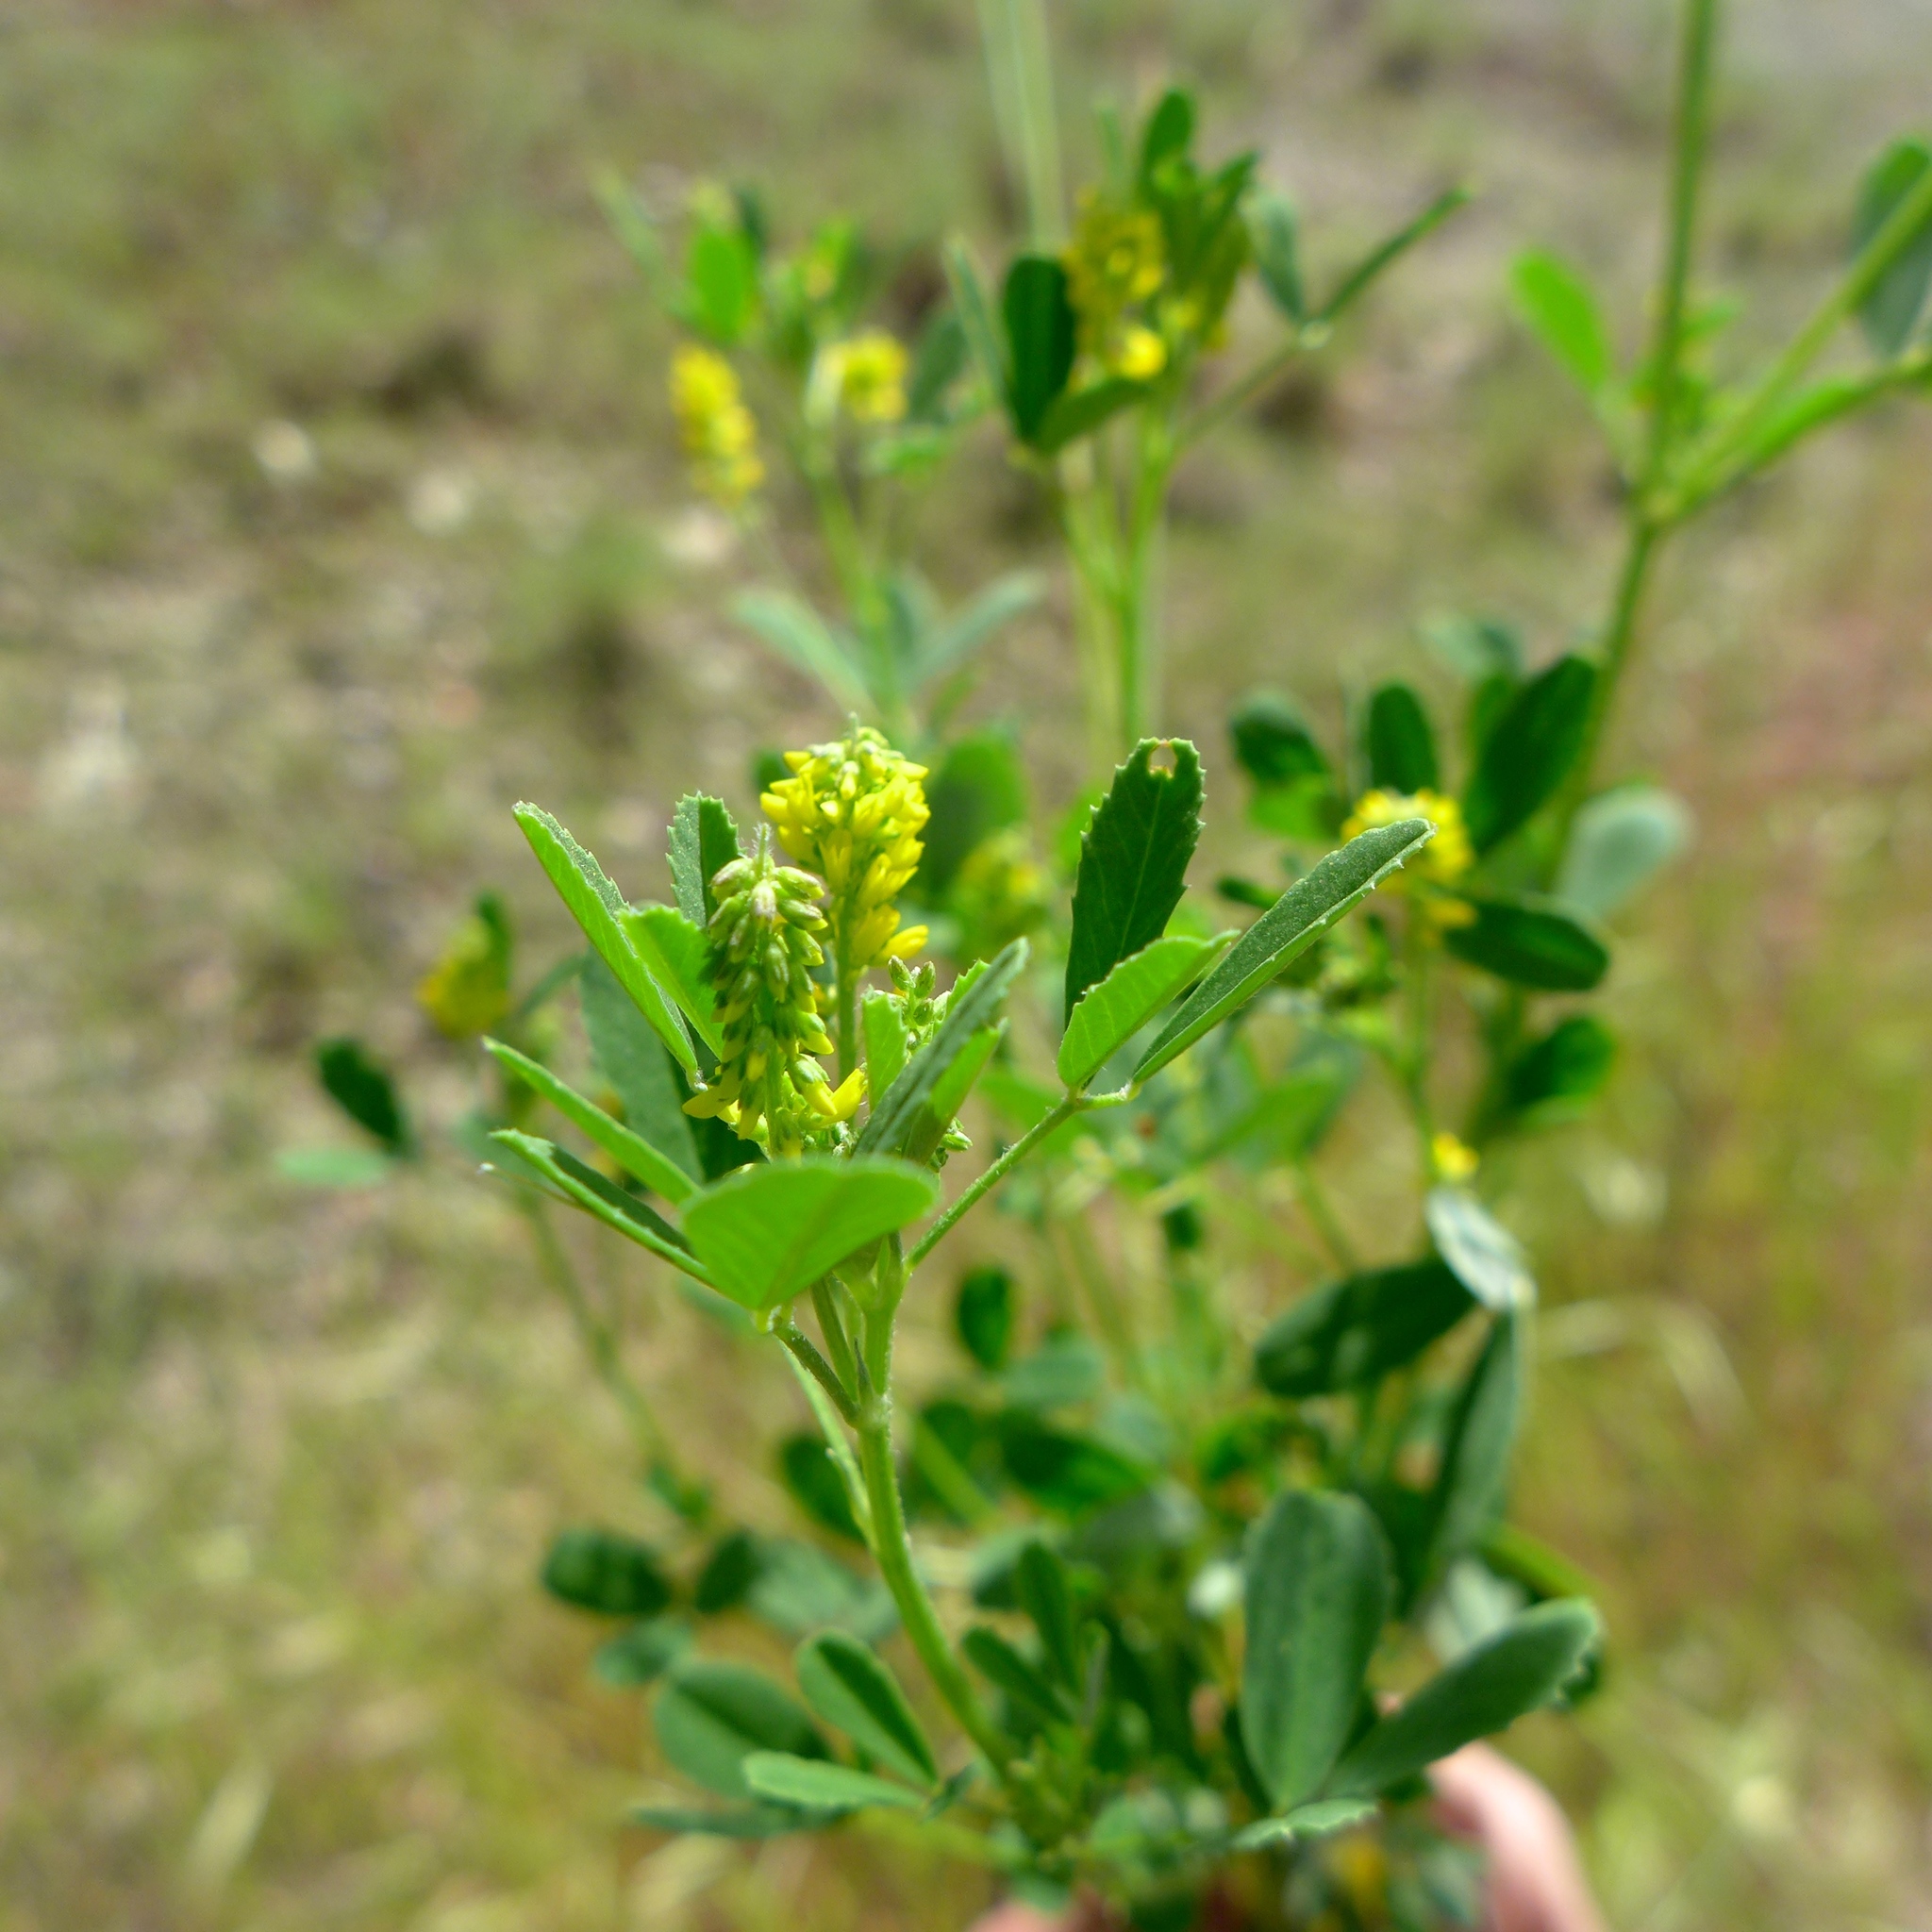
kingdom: Plantae
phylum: Tracheophyta
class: Magnoliopsida
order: Fabales
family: Fabaceae
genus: Melilotus
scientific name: Melilotus indicus
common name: Small melilot
